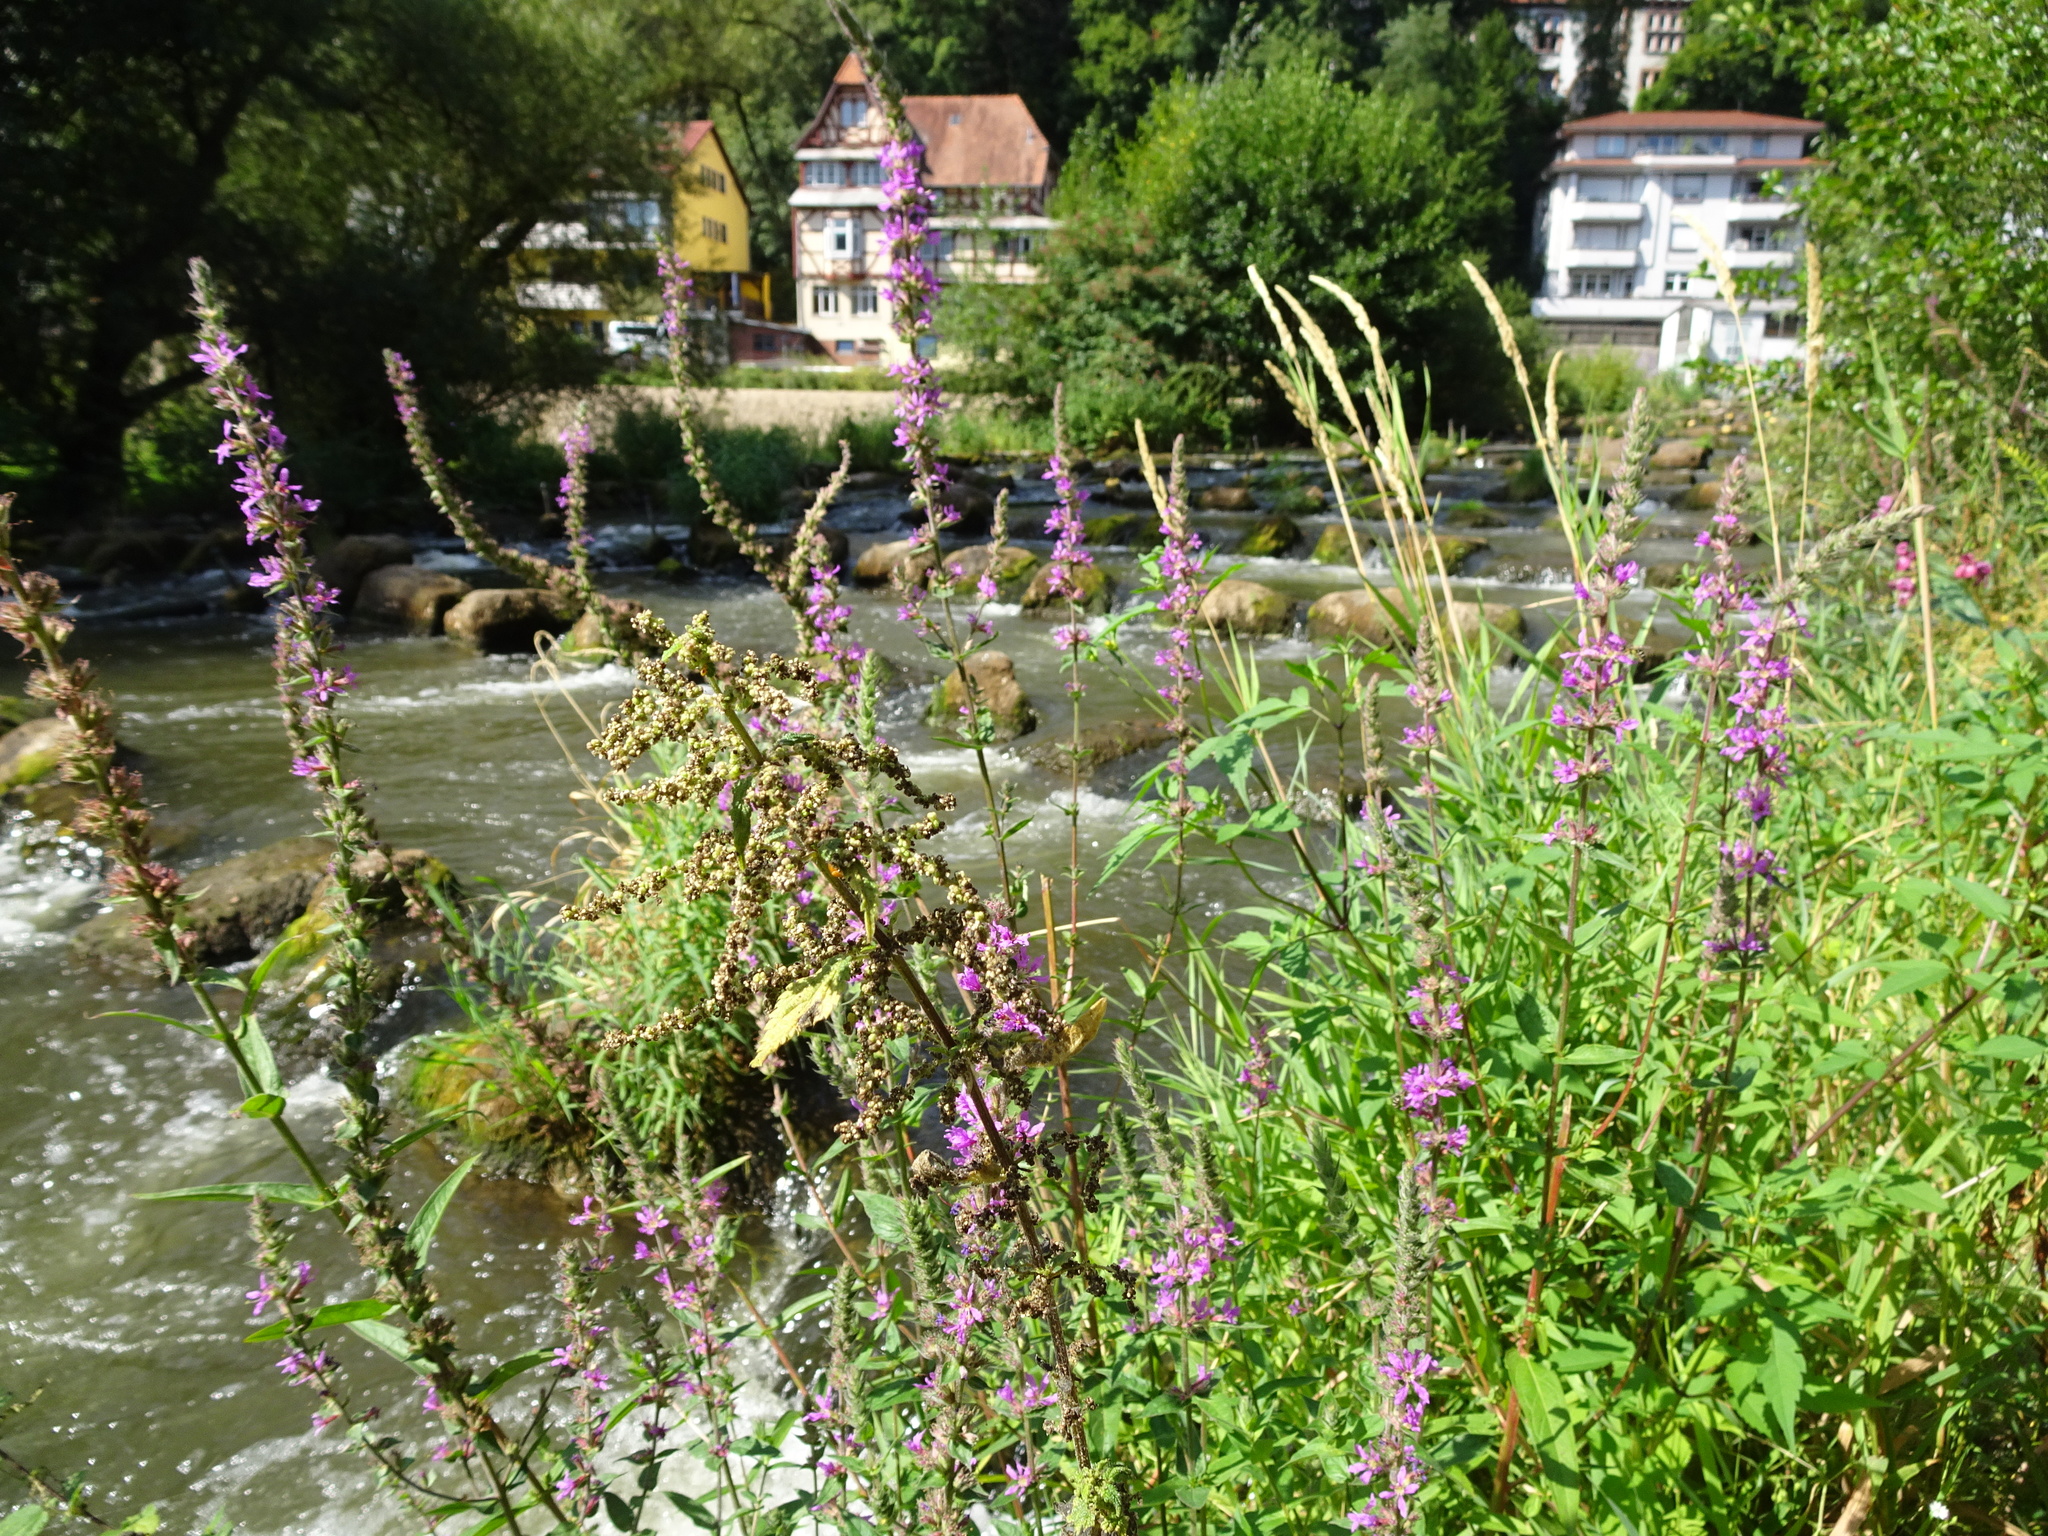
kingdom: Plantae
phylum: Tracheophyta
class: Magnoliopsida
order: Myrtales
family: Lythraceae
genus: Lythrum
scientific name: Lythrum salicaria
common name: Purple loosestrife
